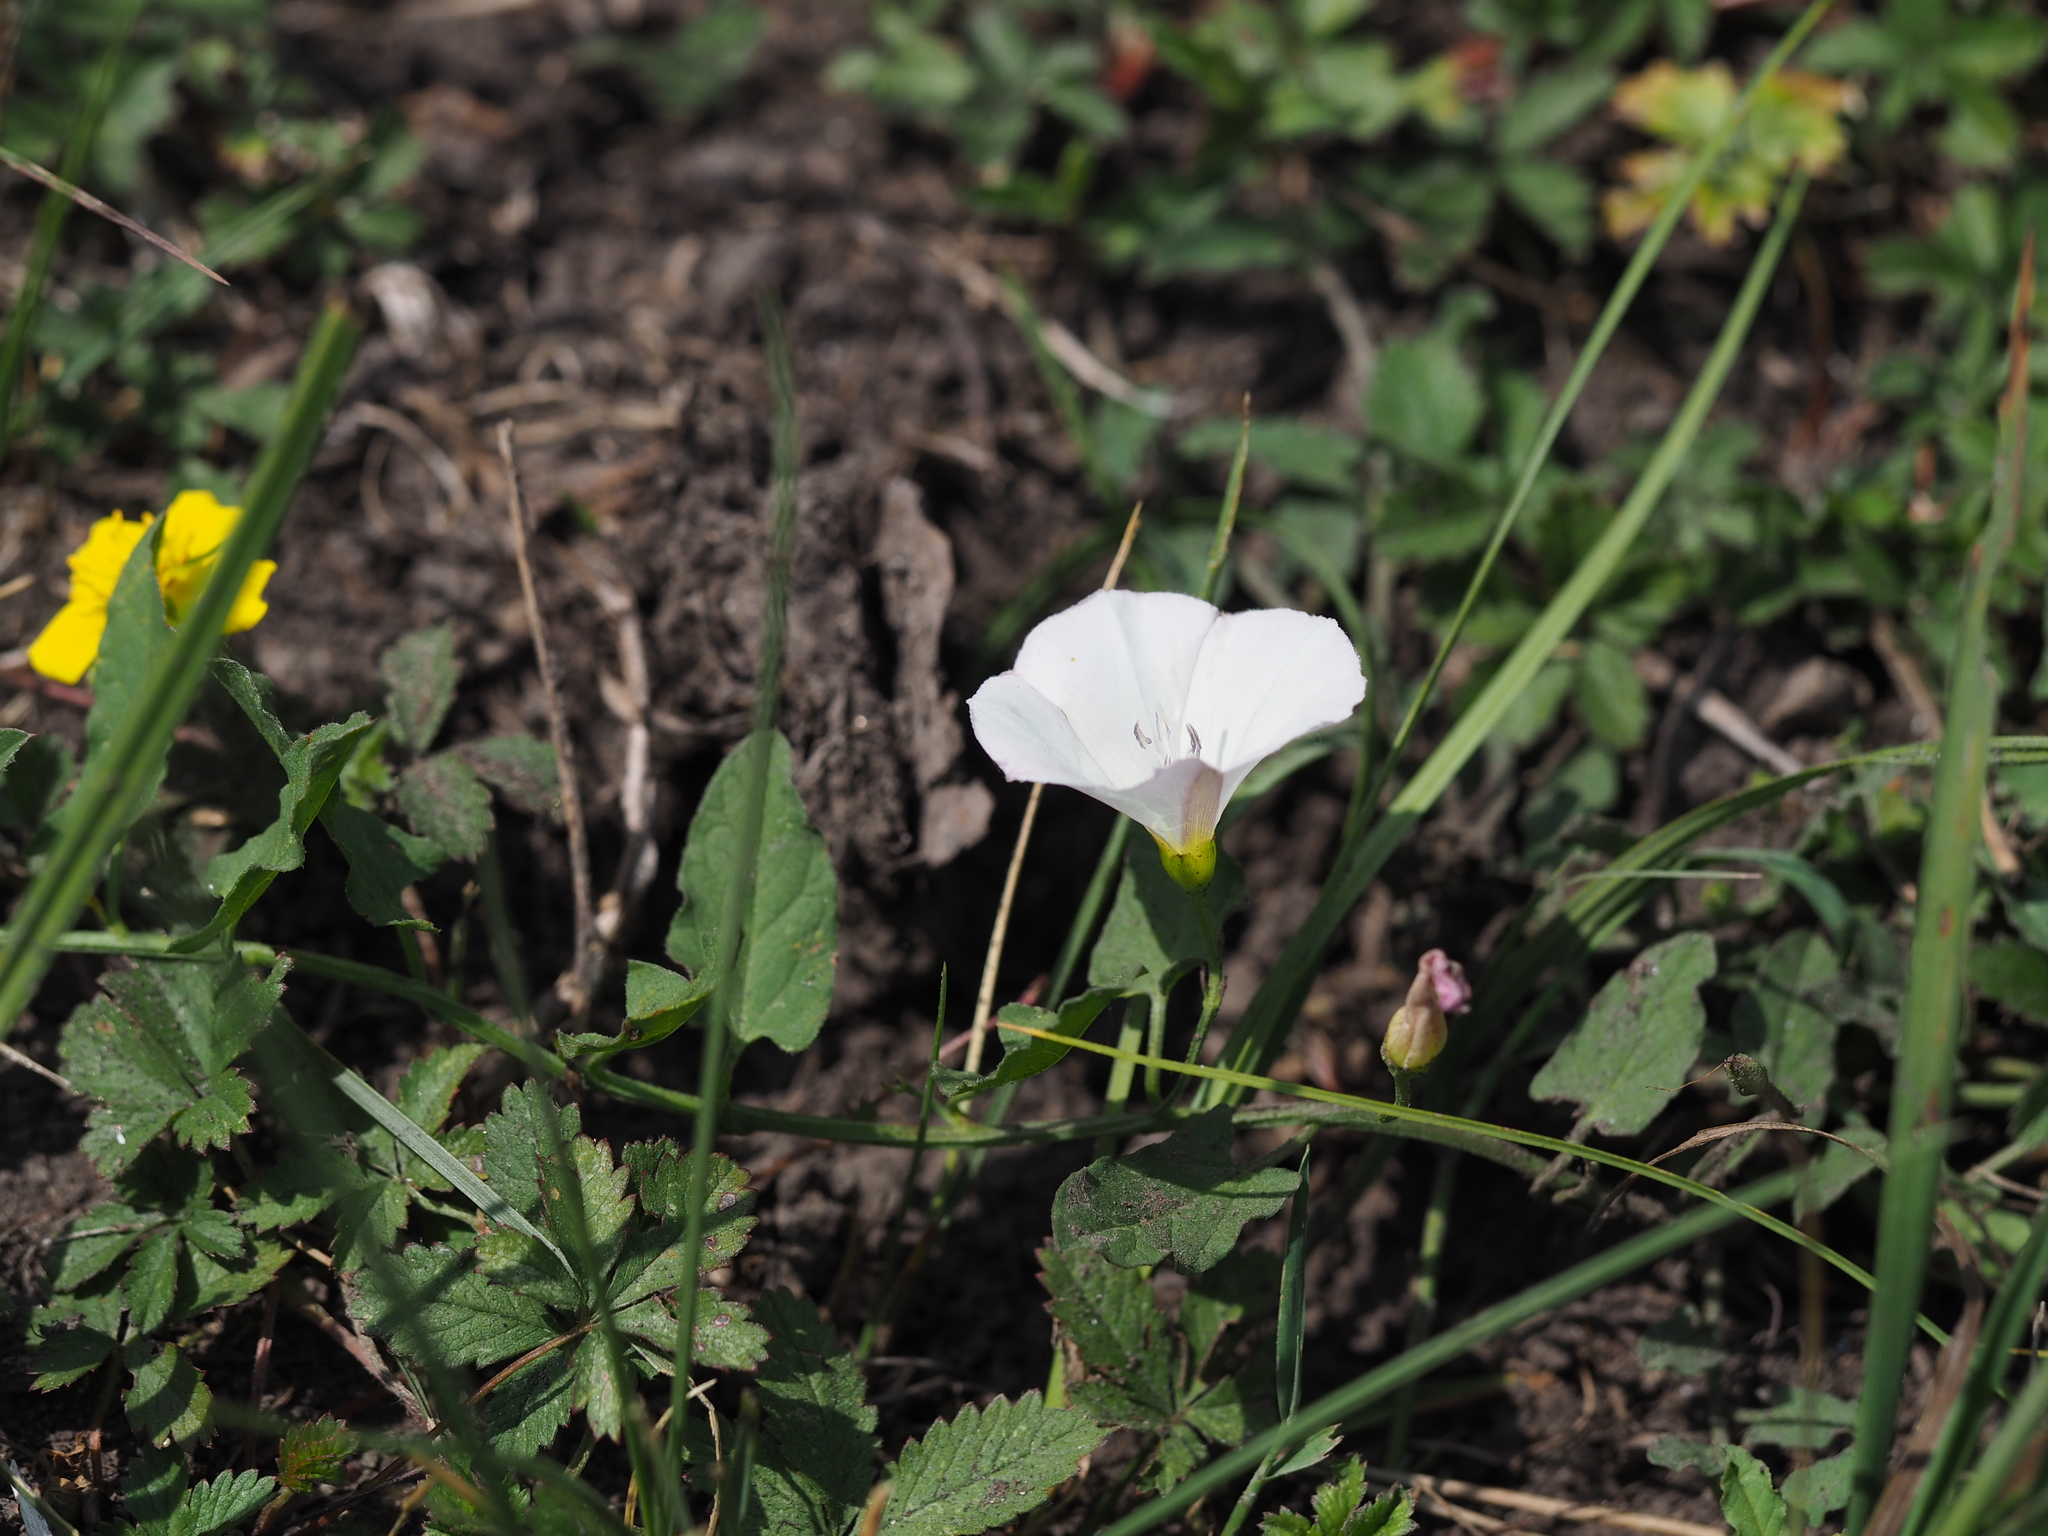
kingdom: Plantae
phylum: Tracheophyta
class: Magnoliopsida
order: Solanales
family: Convolvulaceae
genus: Convolvulus
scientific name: Convolvulus arvensis
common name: Field bindweed
